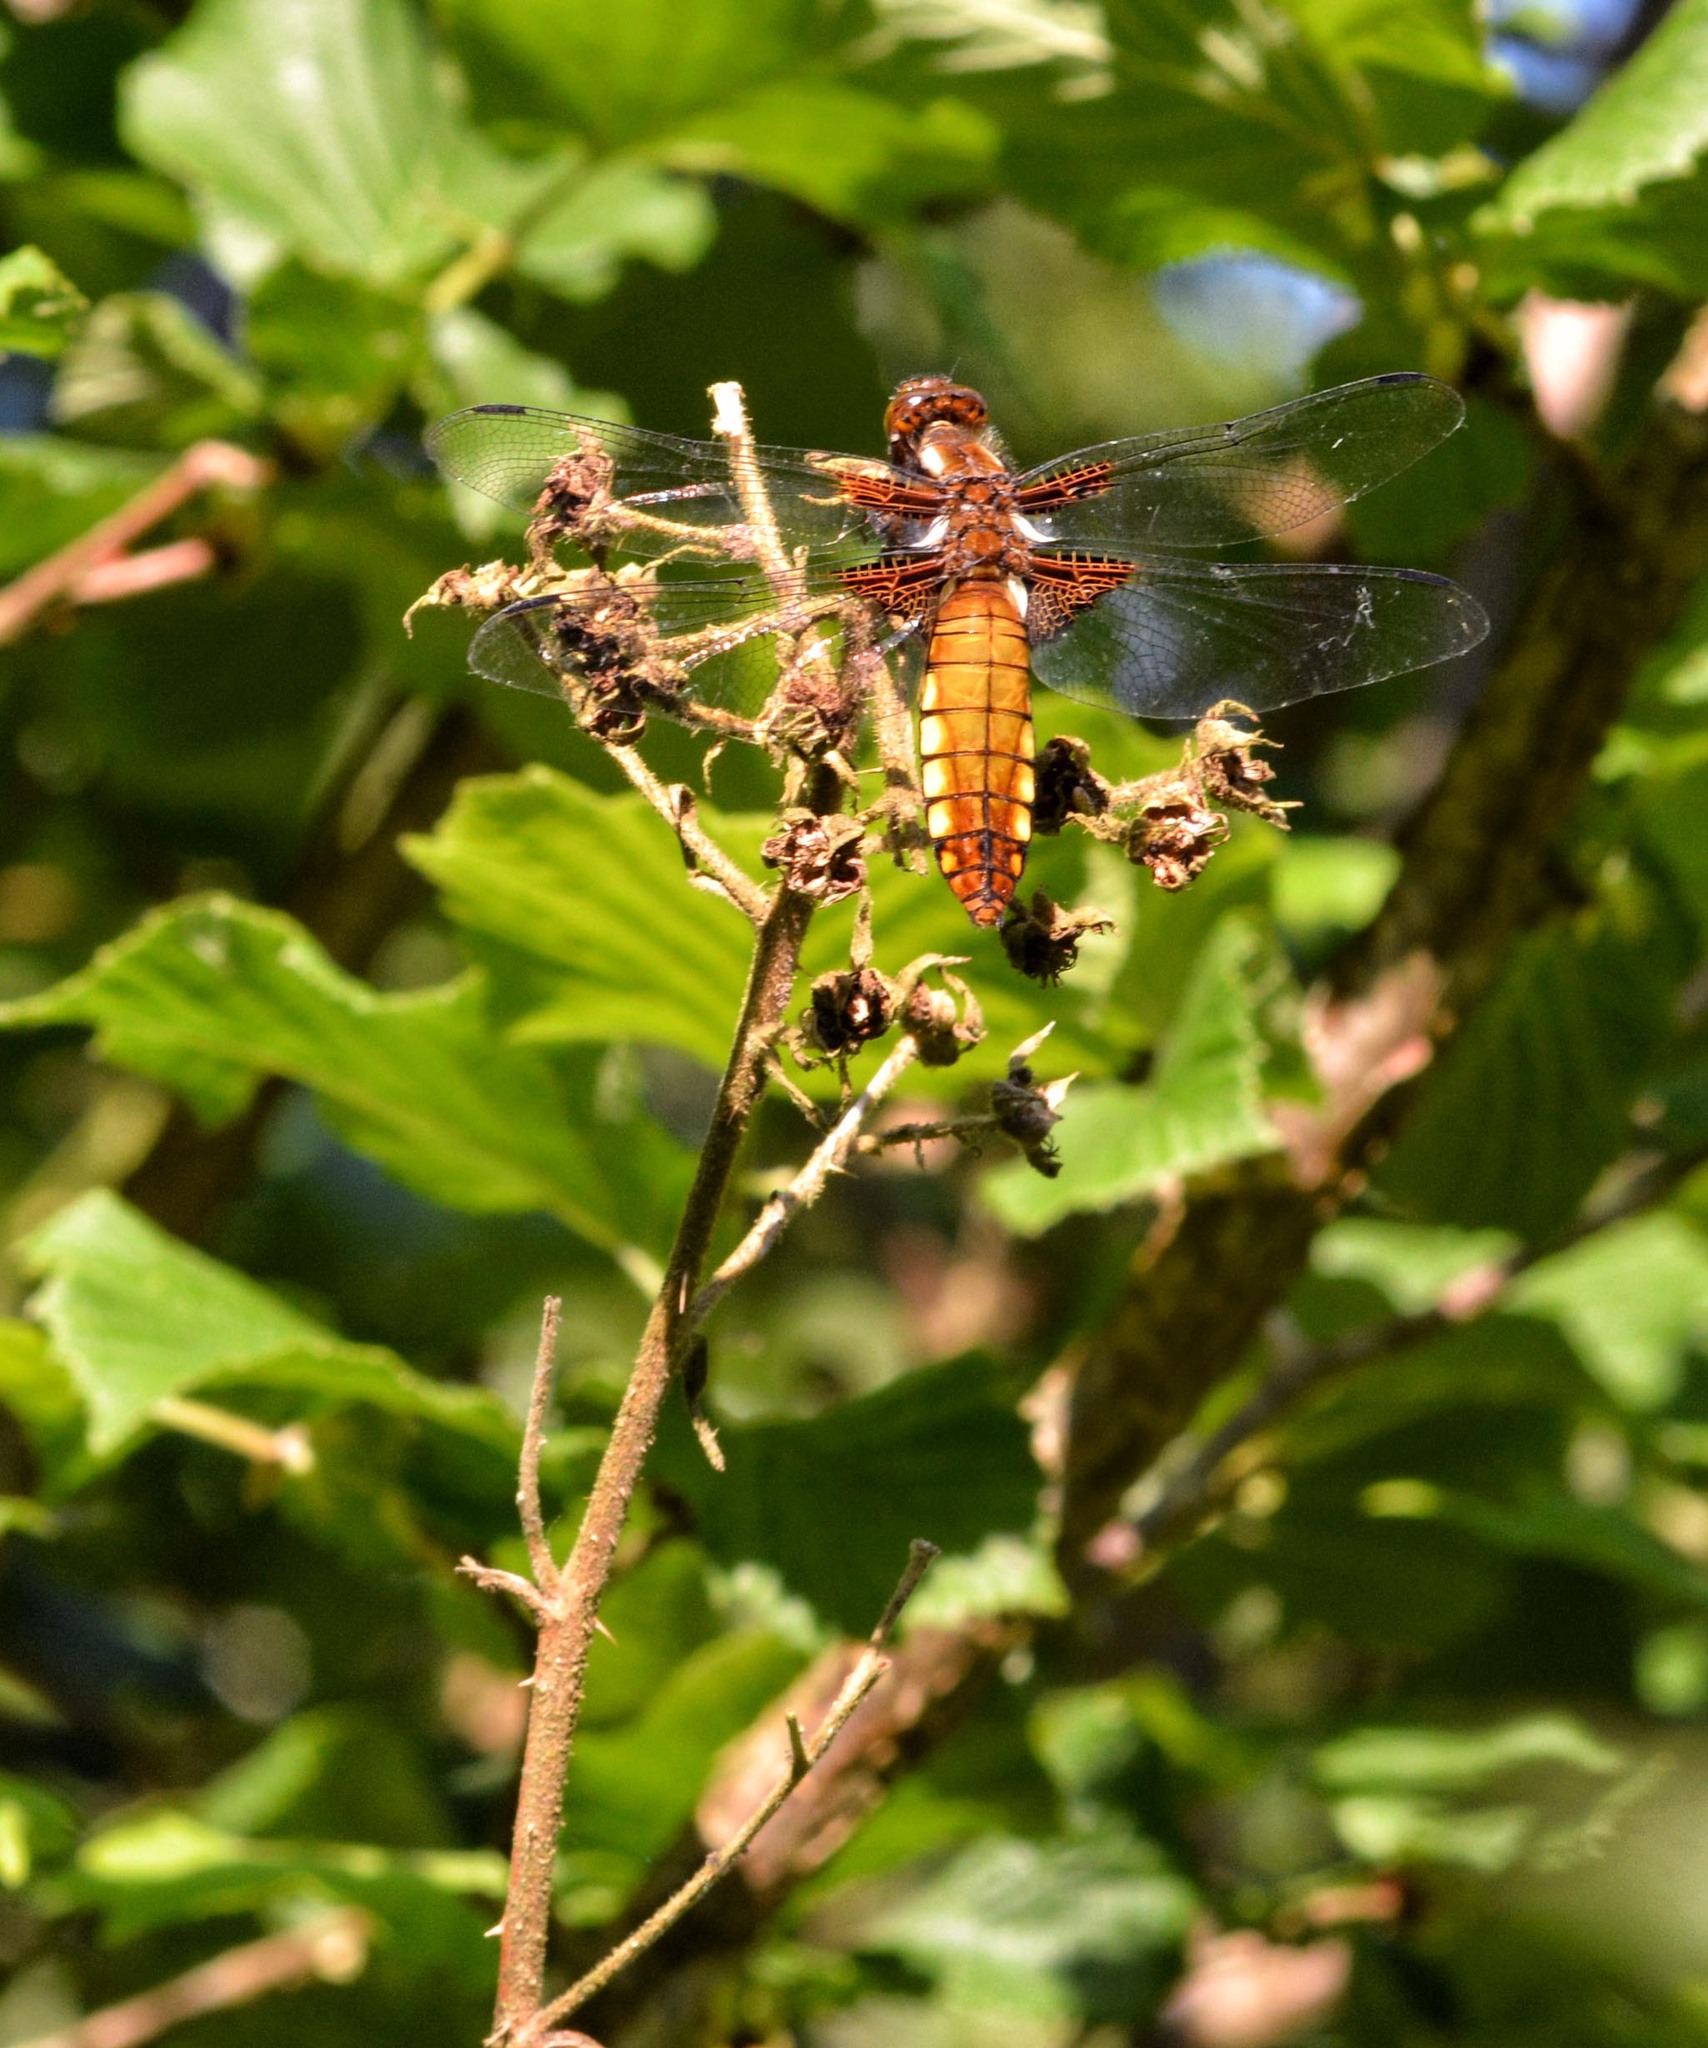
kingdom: Animalia
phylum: Arthropoda
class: Insecta
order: Odonata
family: Libellulidae
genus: Libellula
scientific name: Libellula depressa
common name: Broad-bodied chaser
